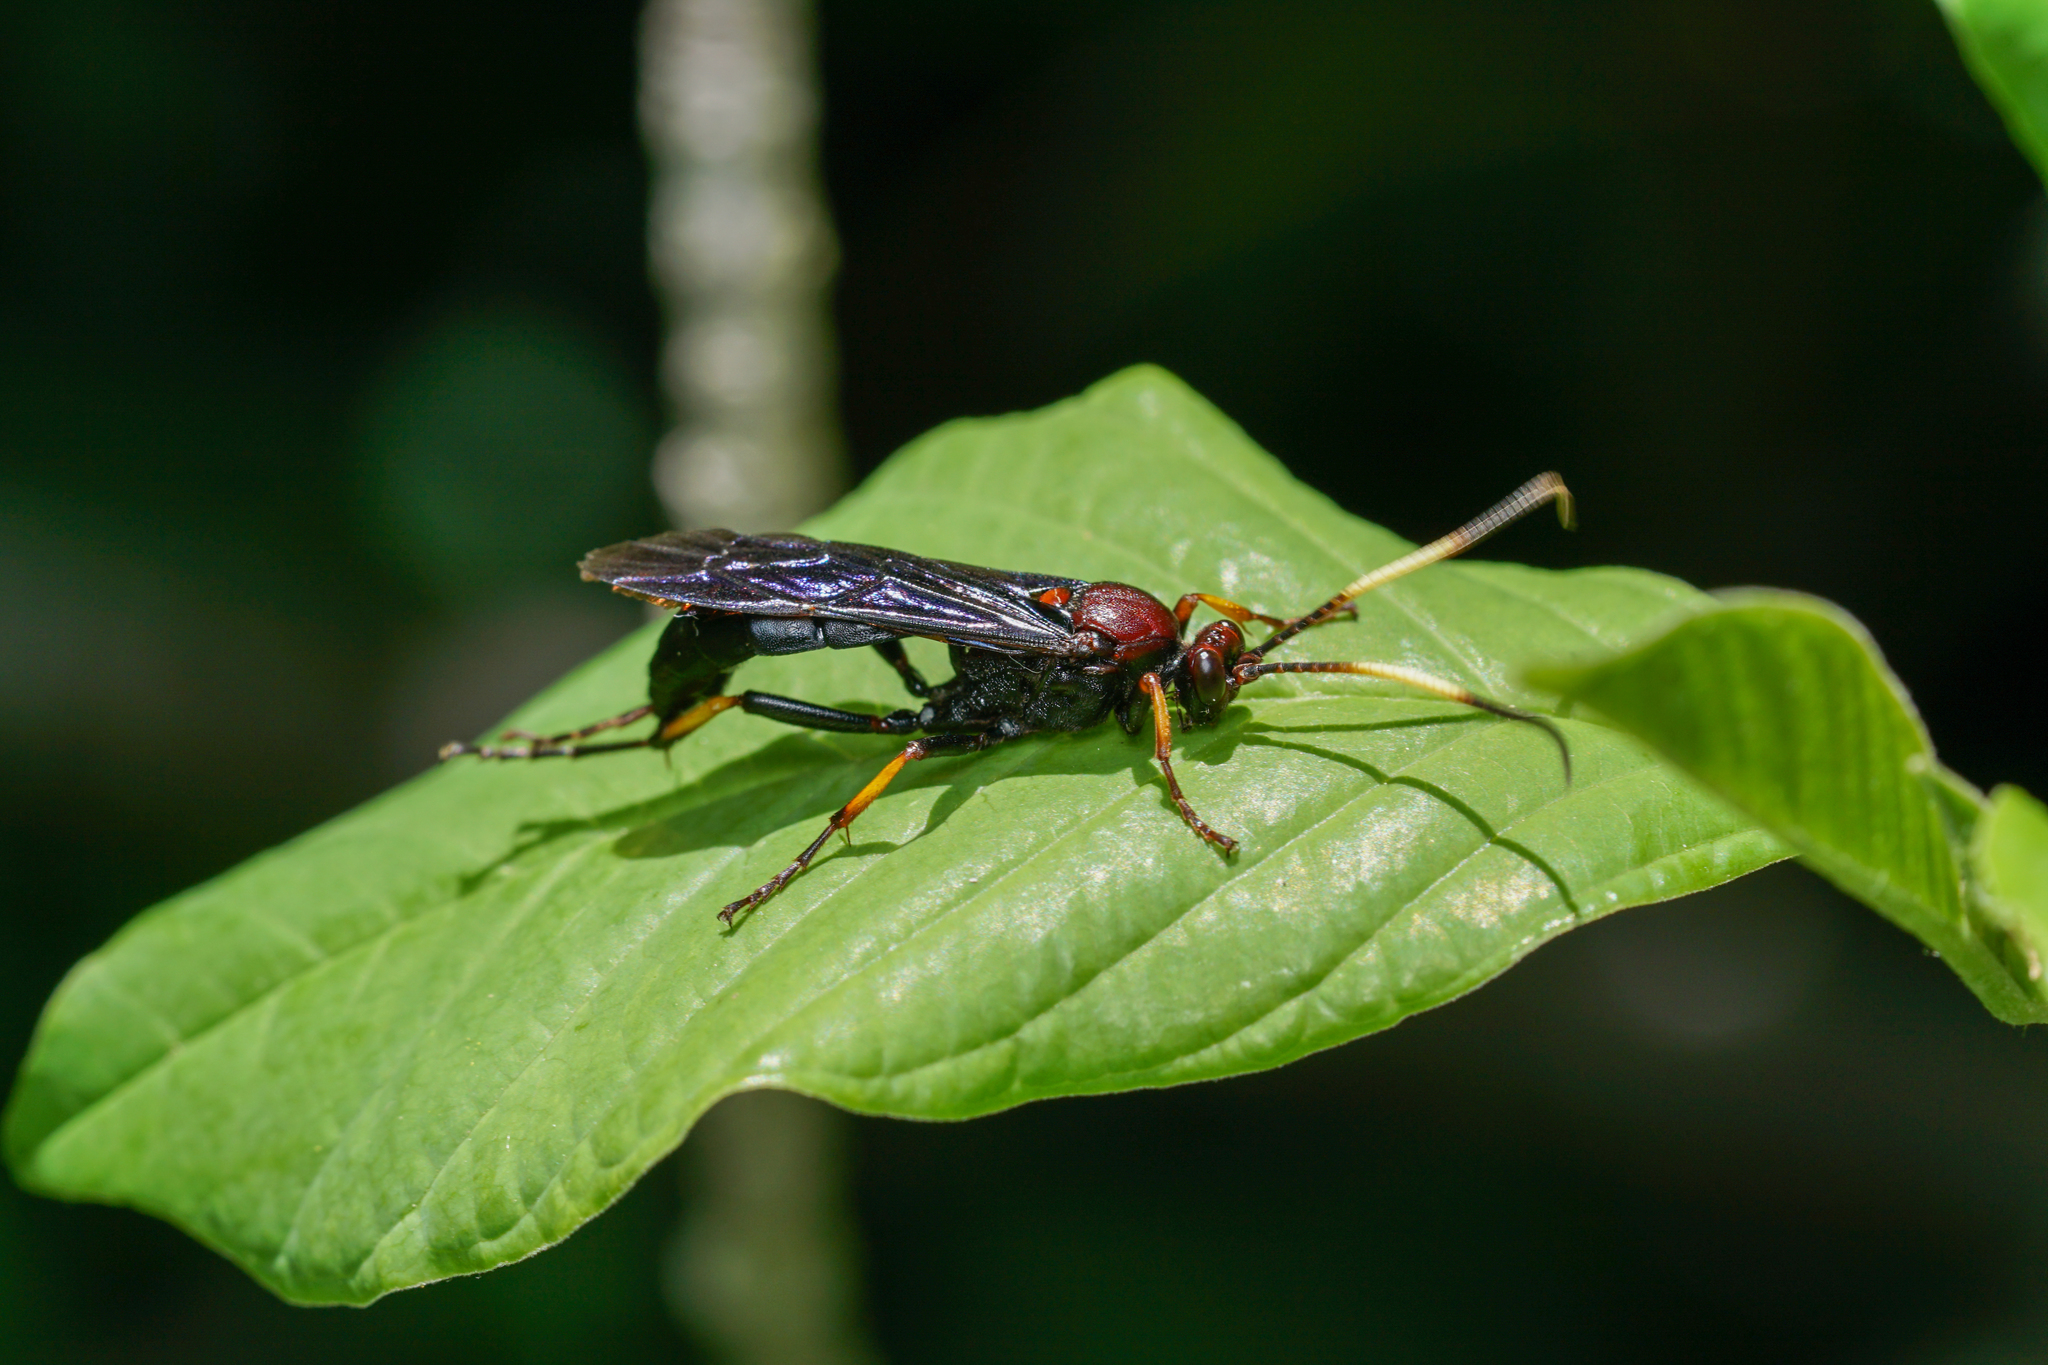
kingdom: Animalia
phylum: Arthropoda
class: Insecta
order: Hymenoptera
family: Ichneumonidae
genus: Ichneumon
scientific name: Ichneumon centrator
